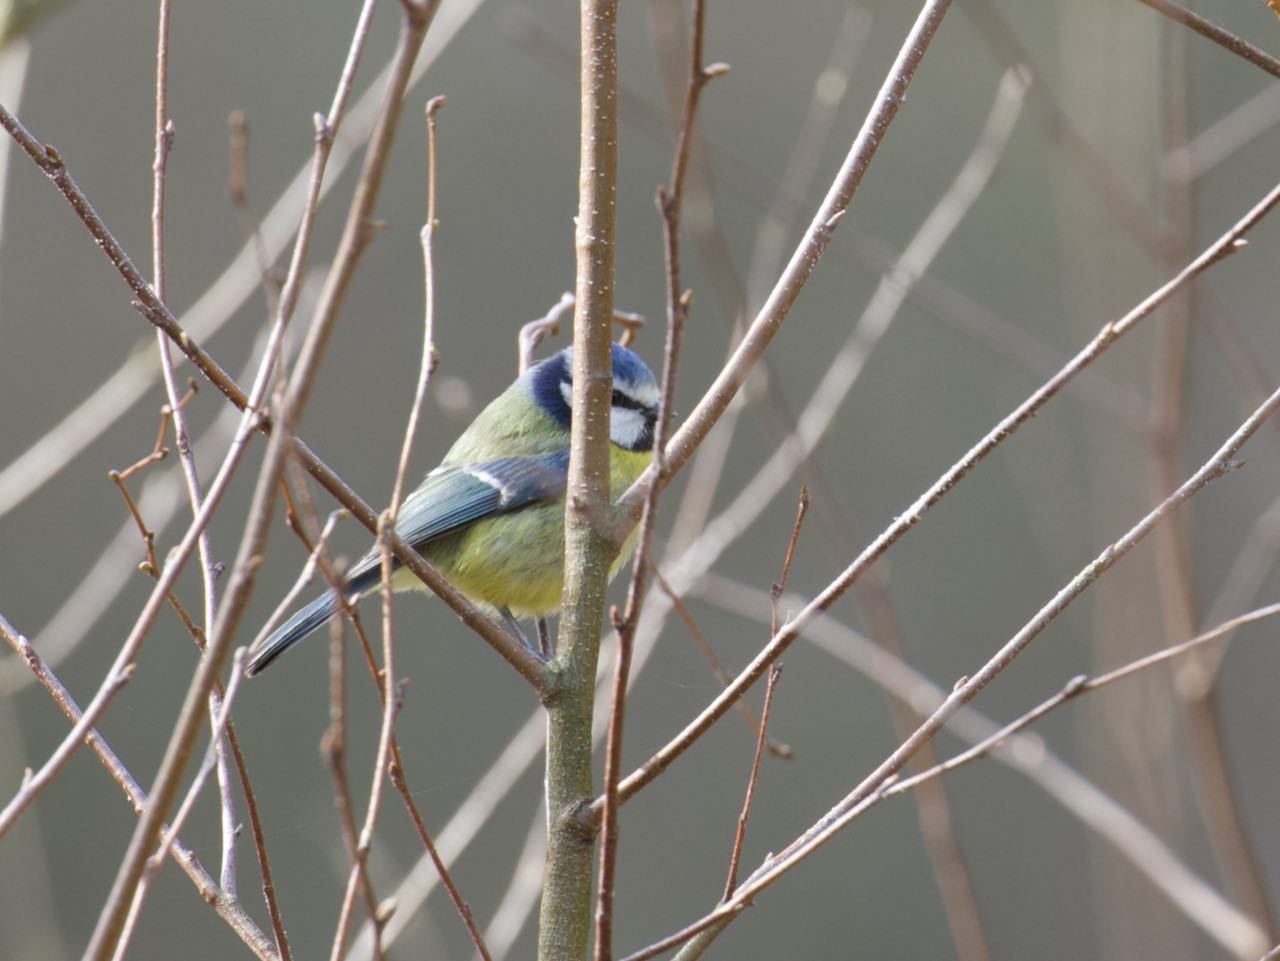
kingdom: Animalia
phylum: Chordata
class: Aves
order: Passeriformes
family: Paridae
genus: Cyanistes
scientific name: Cyanistes caeruleus
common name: Eurasian blue tit
